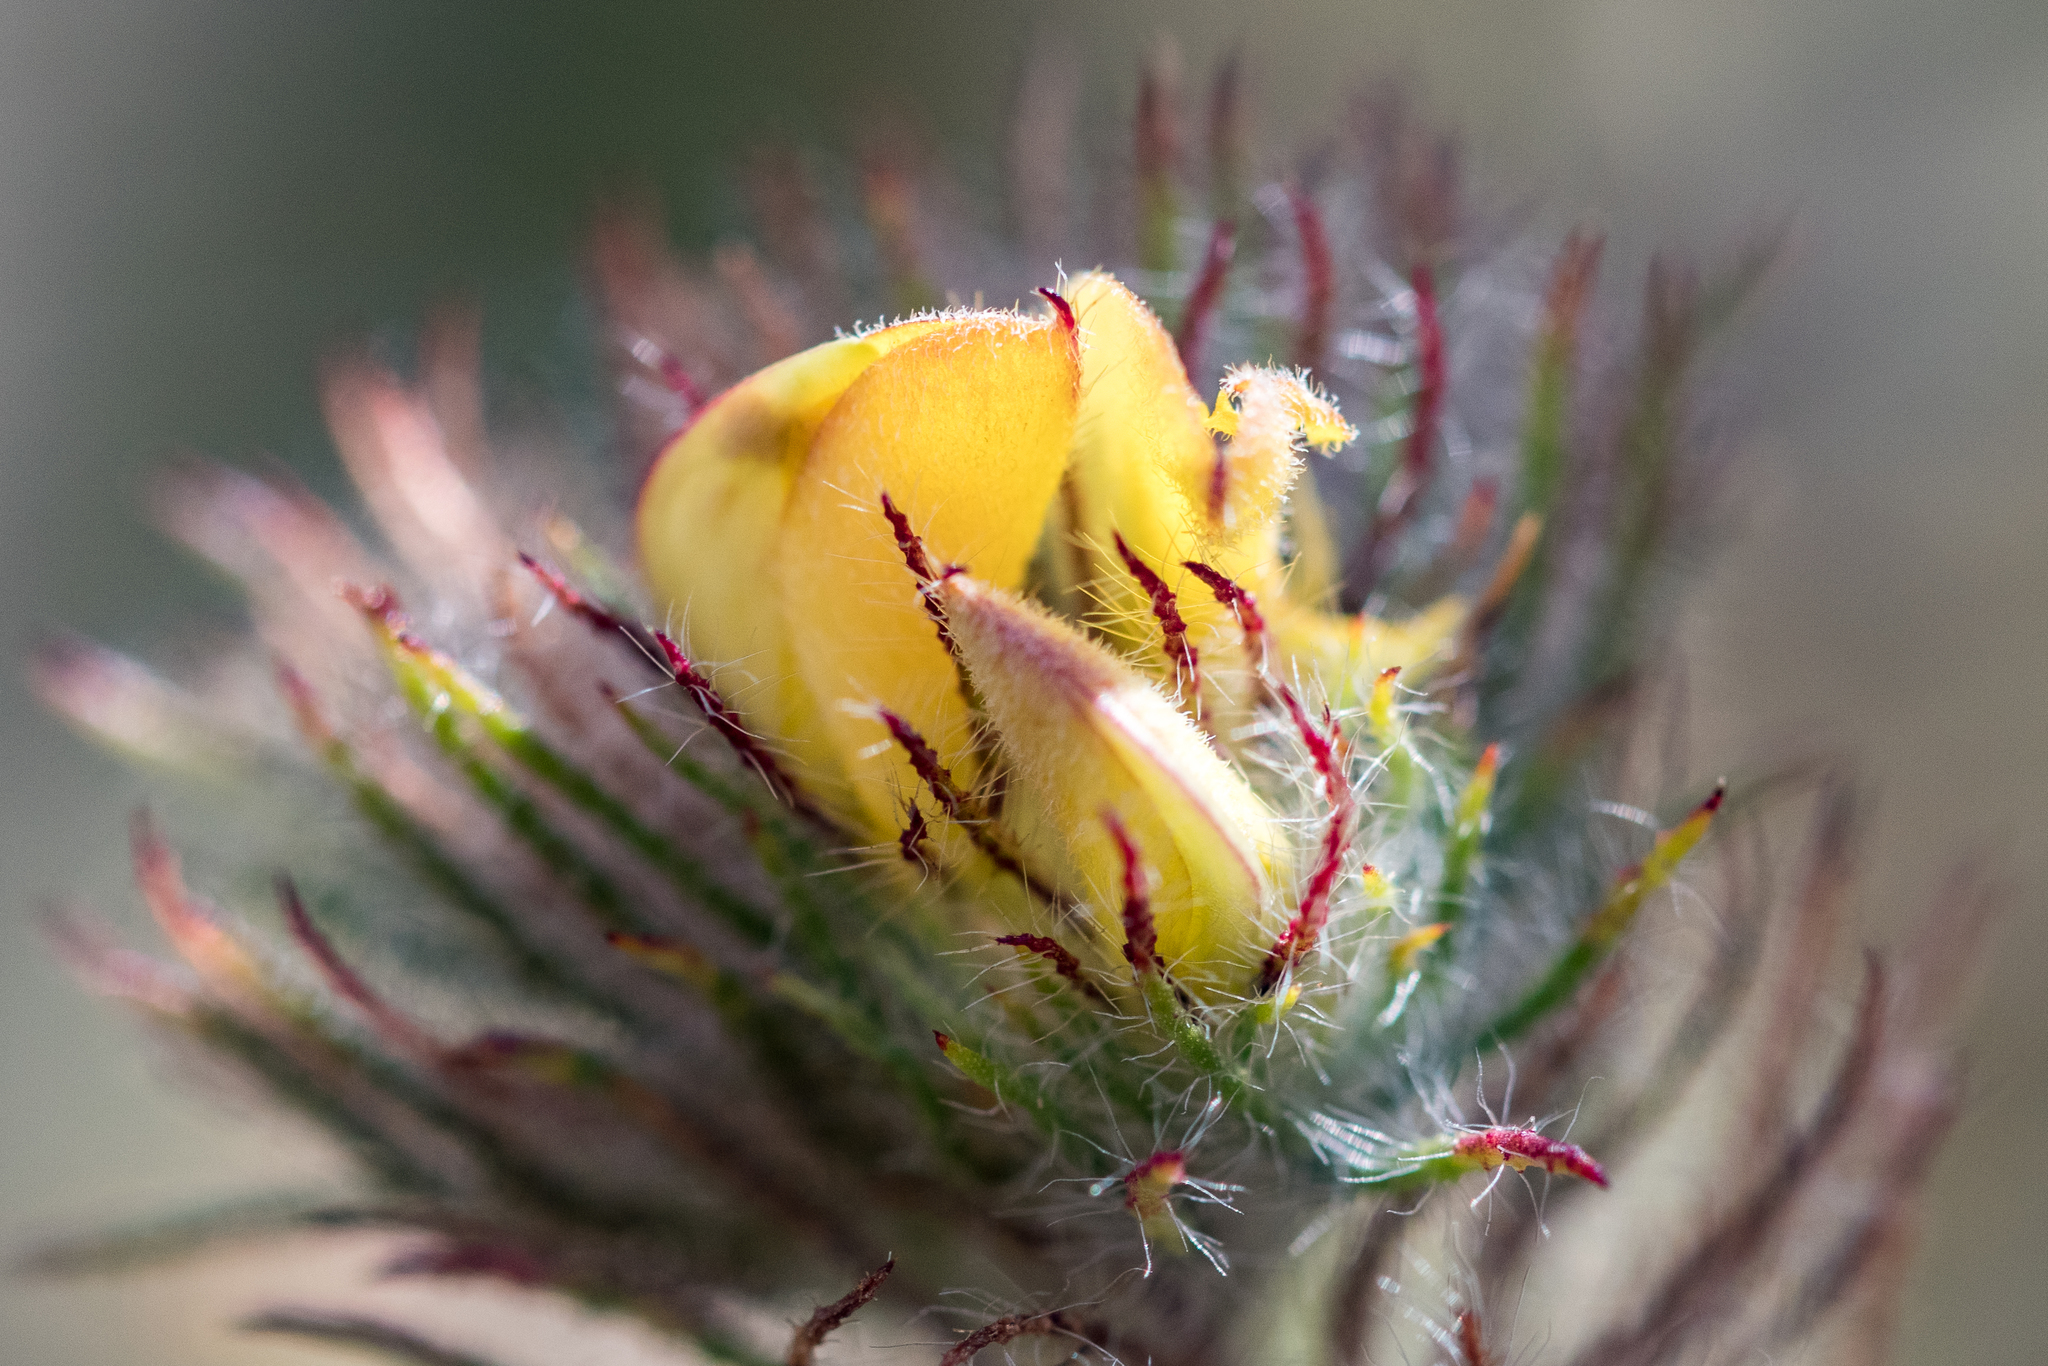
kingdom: Plantae
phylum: Tracheophyta
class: Magnoliopsida
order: Fabales
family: Fabaceae
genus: Aspalathus
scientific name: Aspalathus araneosa
